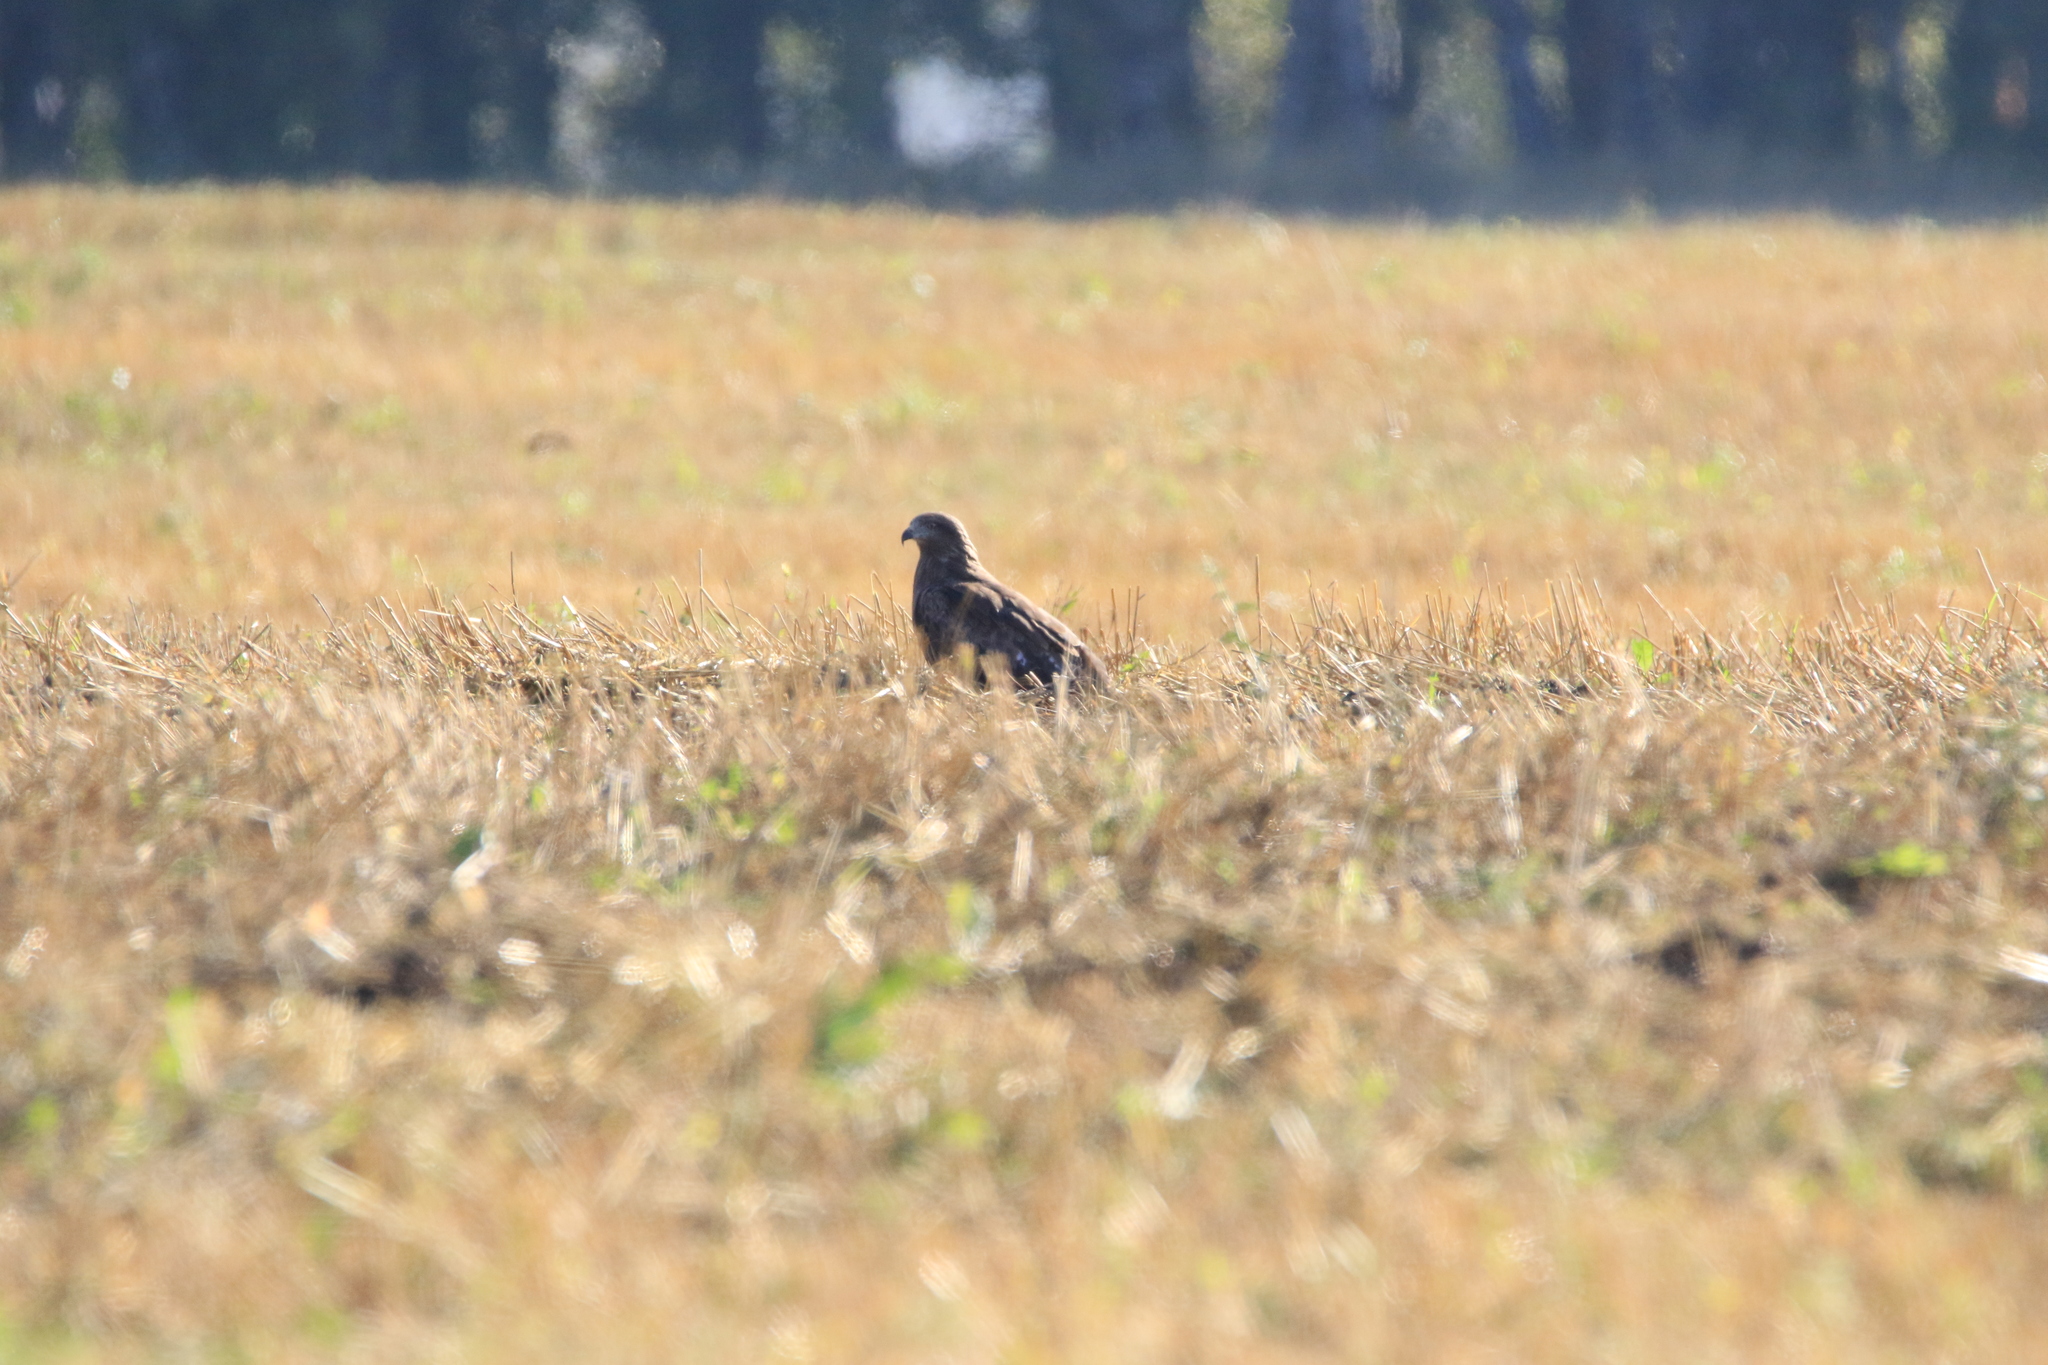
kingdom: Animalia
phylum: Chordata
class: Aves
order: Accipitriformes
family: Accipitridae
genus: Milvus
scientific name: Milvus migrans
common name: Black kite
